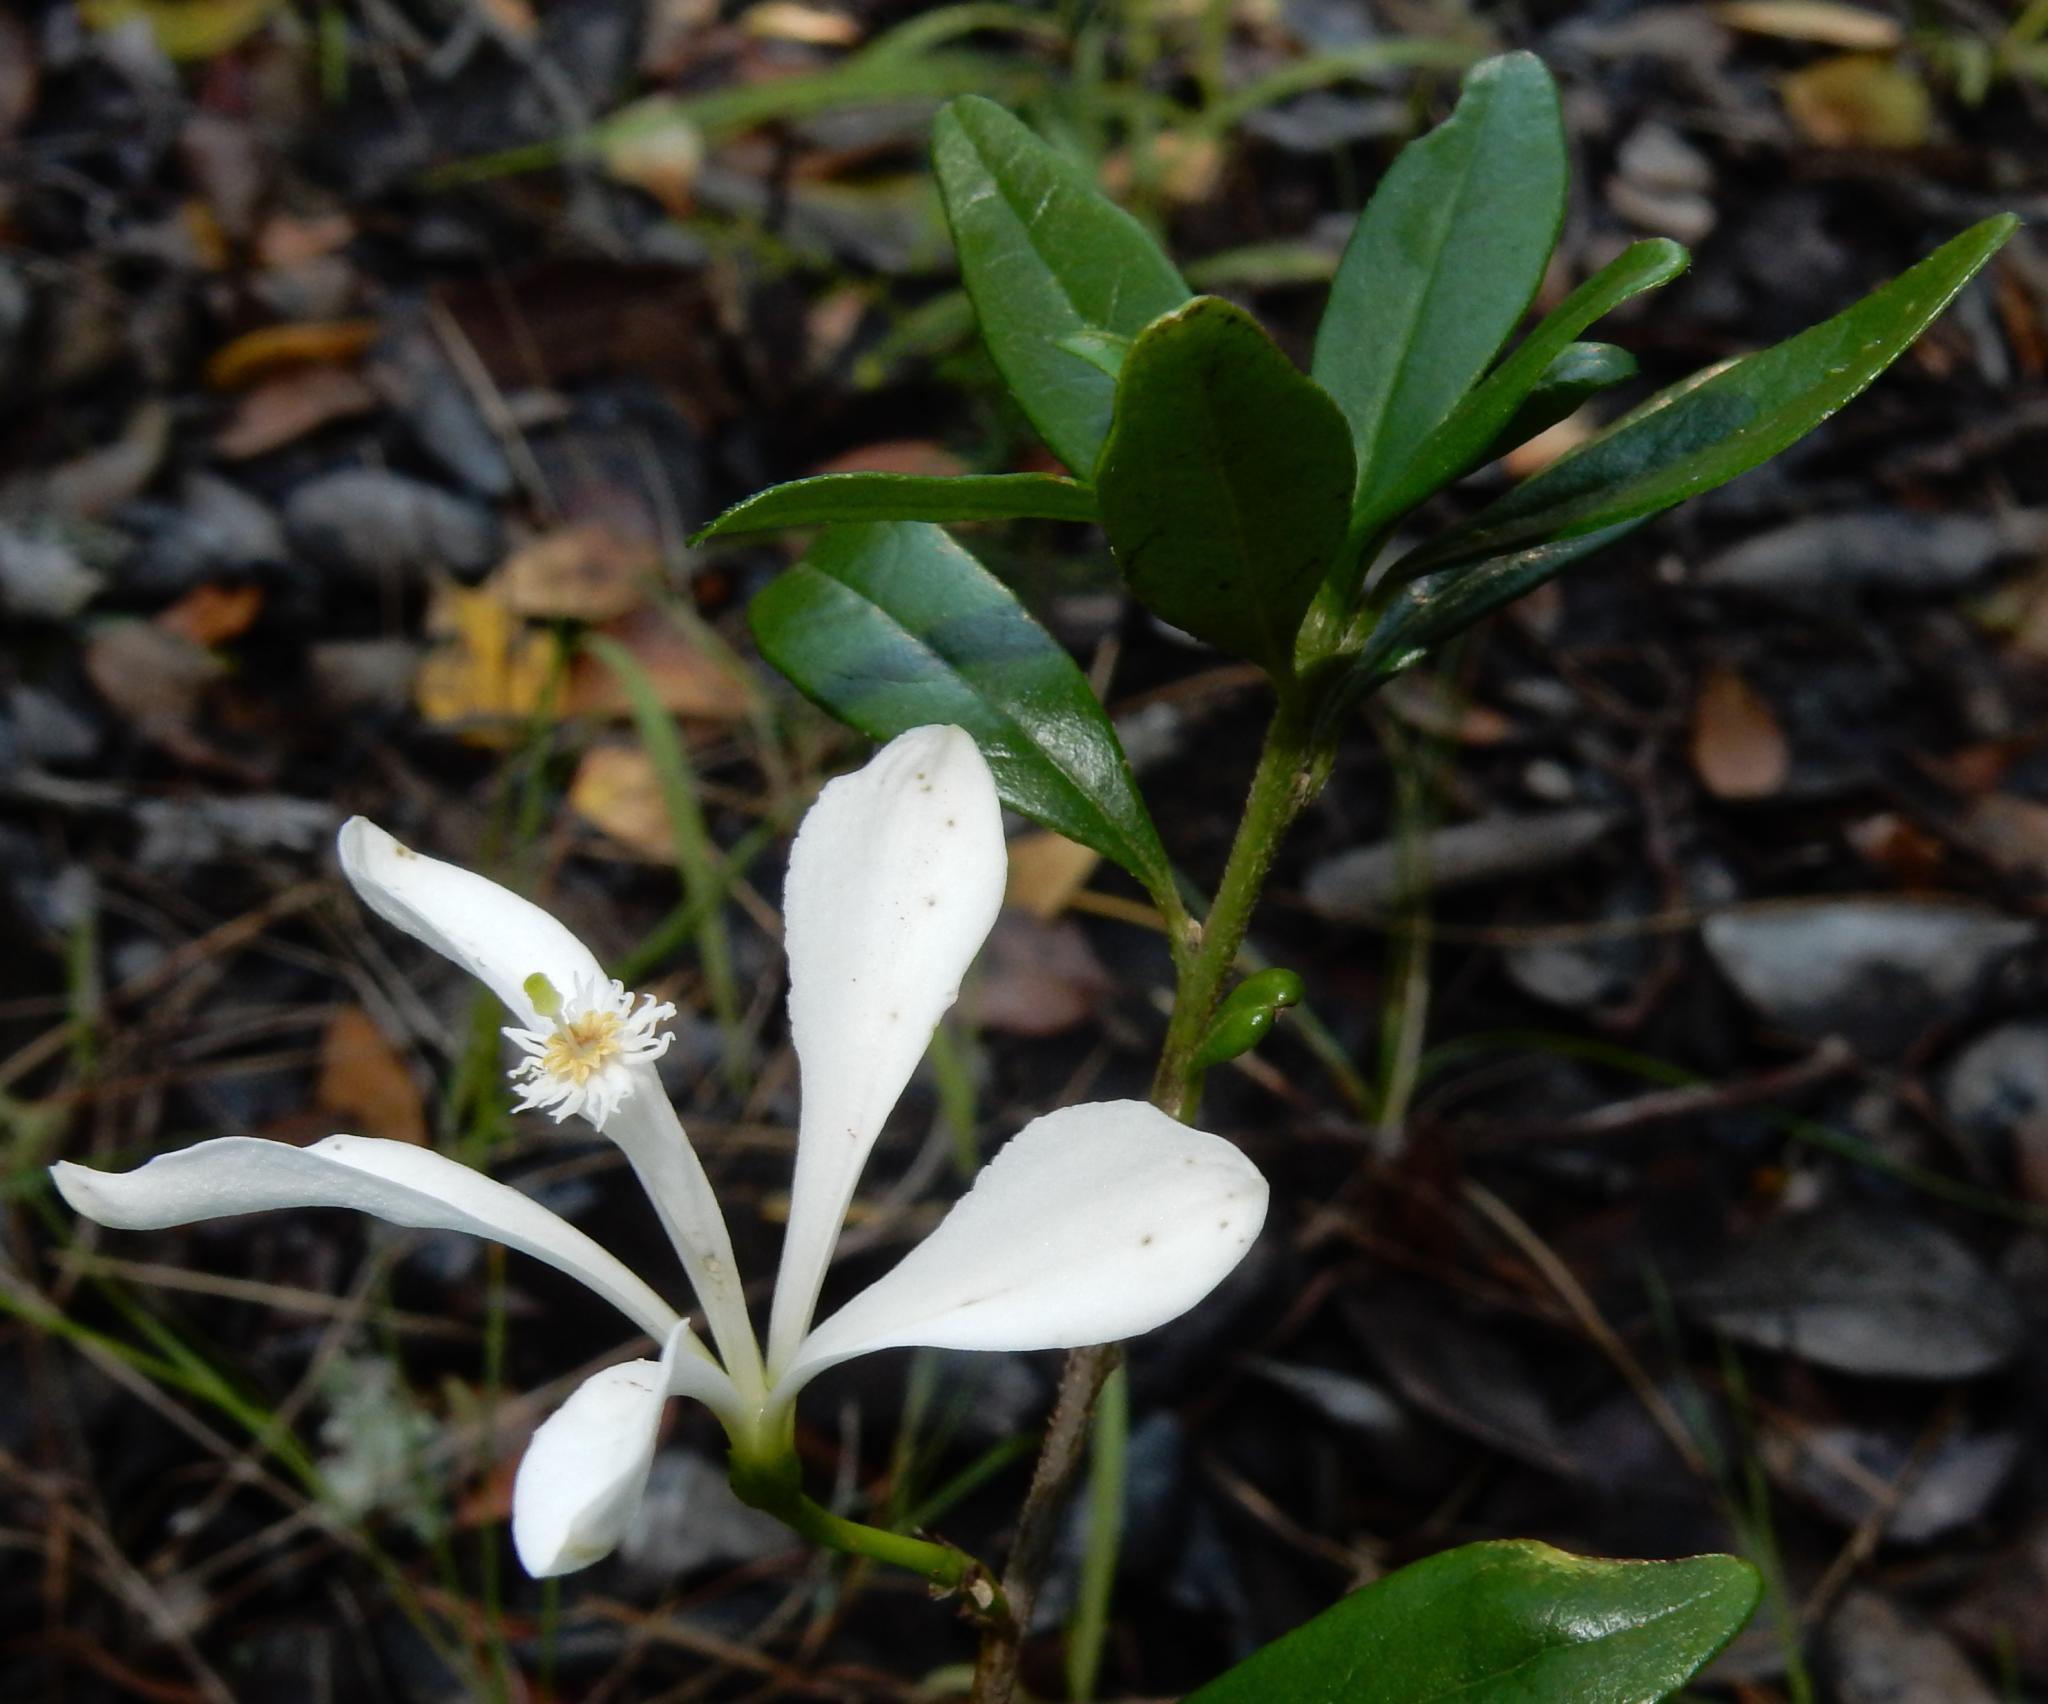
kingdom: Plantae
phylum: Tracheophyta
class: Magnoliopsida
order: Sapindales
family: Meliaceae
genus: Turraea
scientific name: Turraea obtusifolia
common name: Small honeysuckle tree
